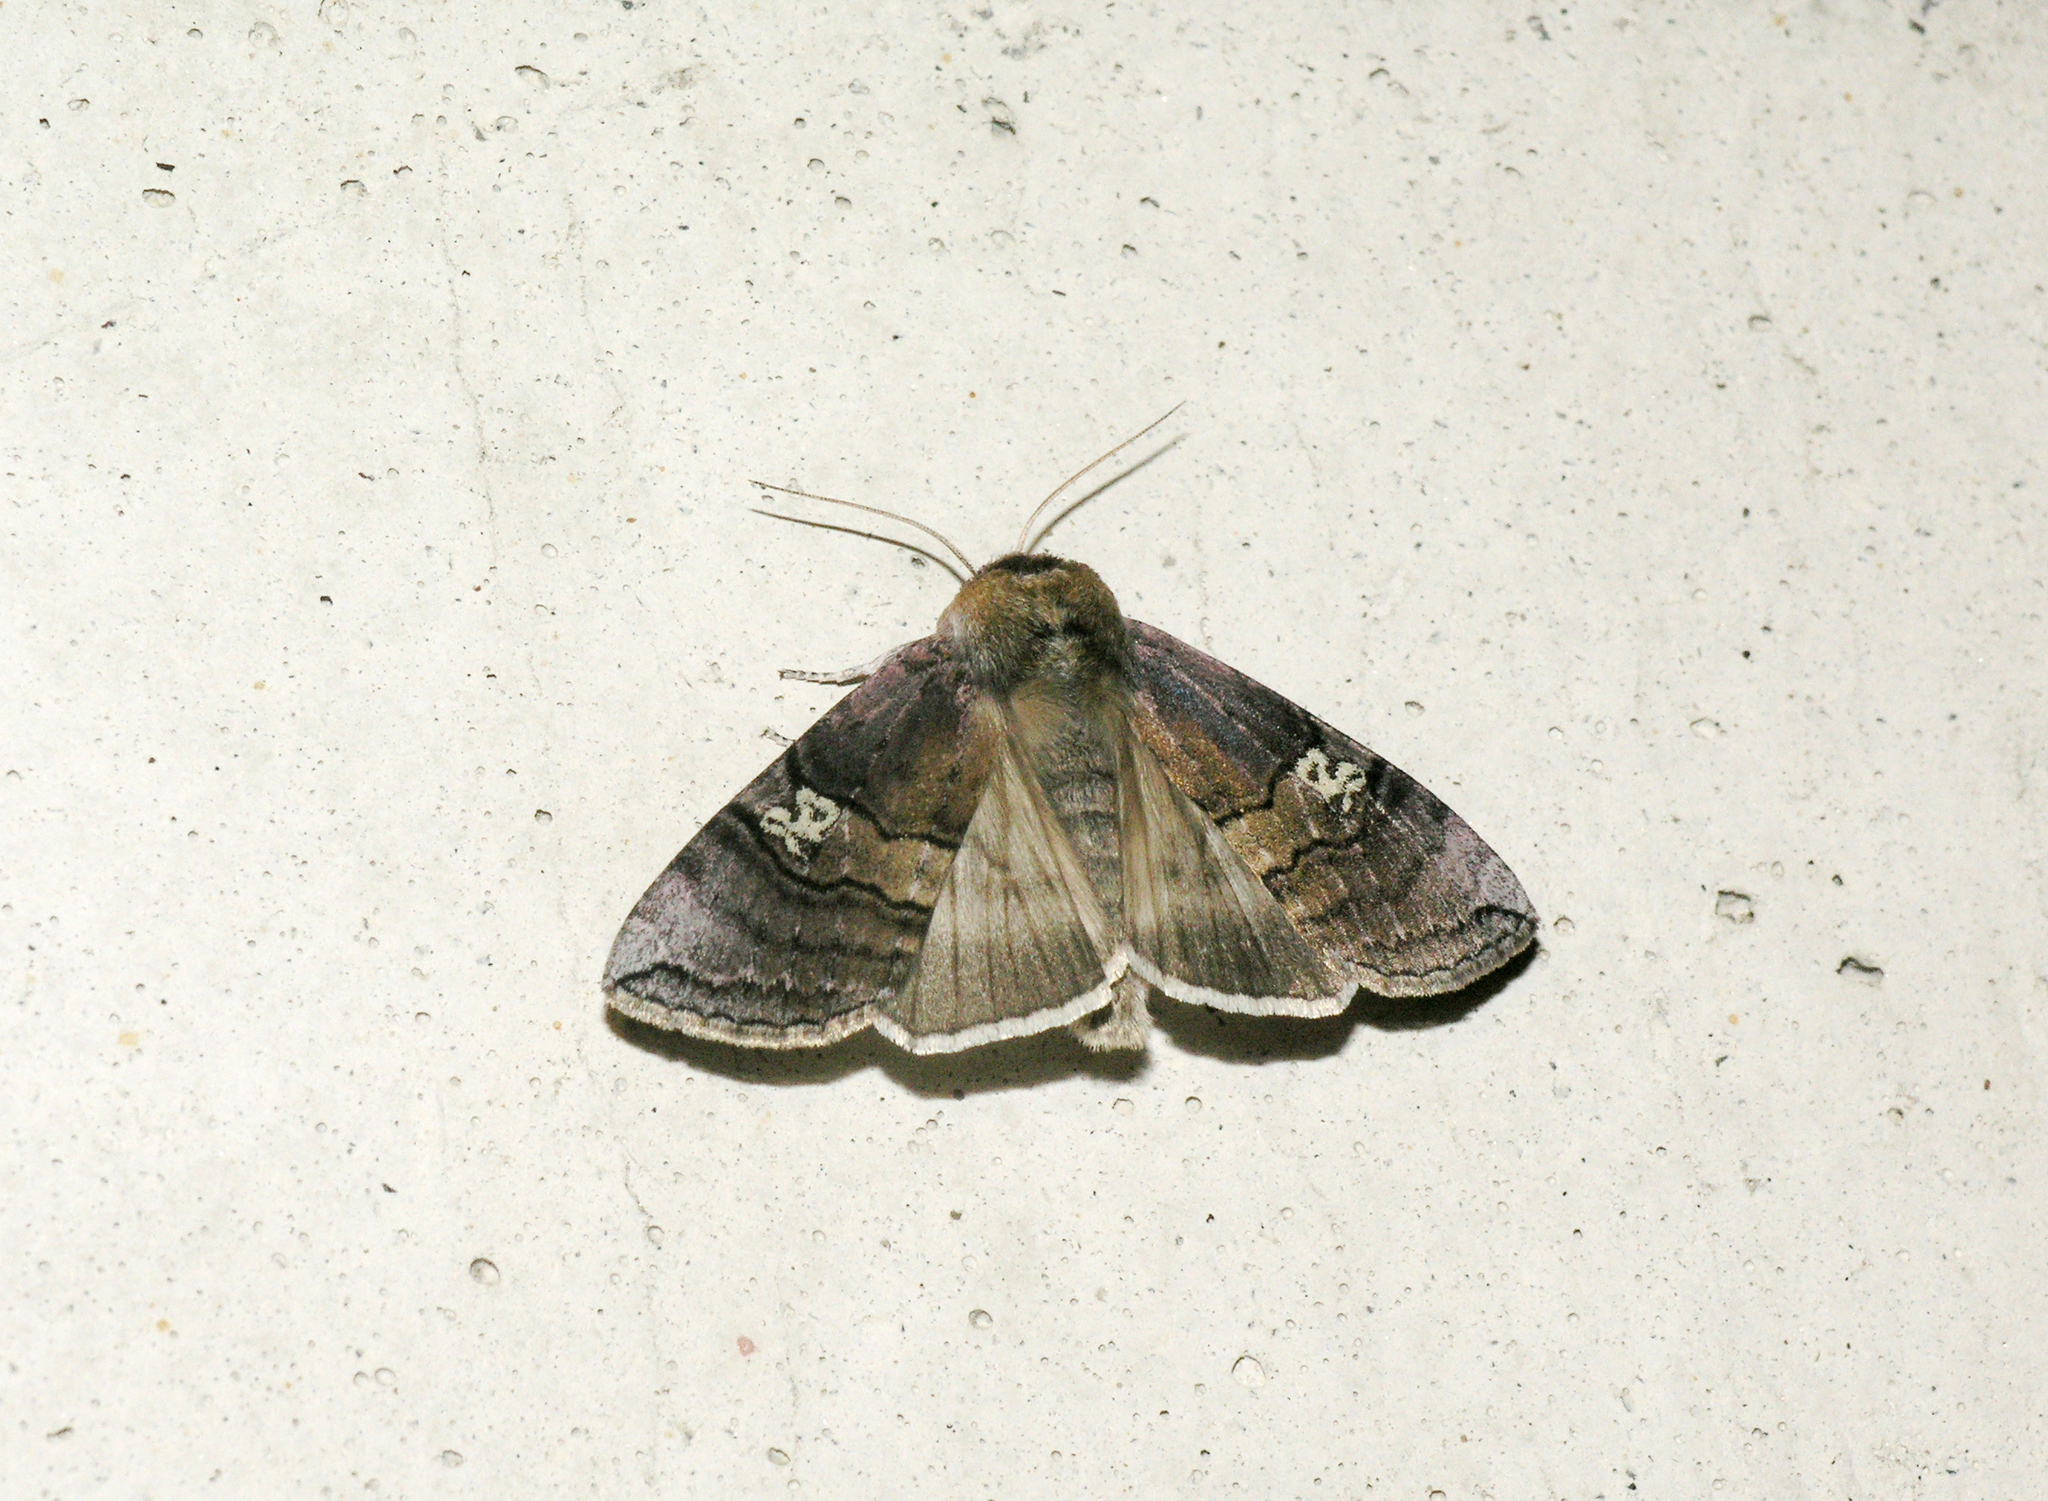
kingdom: Animalia
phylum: Arthropoda
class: Insecta
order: Lepidoptera
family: Drepanidae
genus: Tethea
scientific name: Tethea ocularis
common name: Figure of eighty
